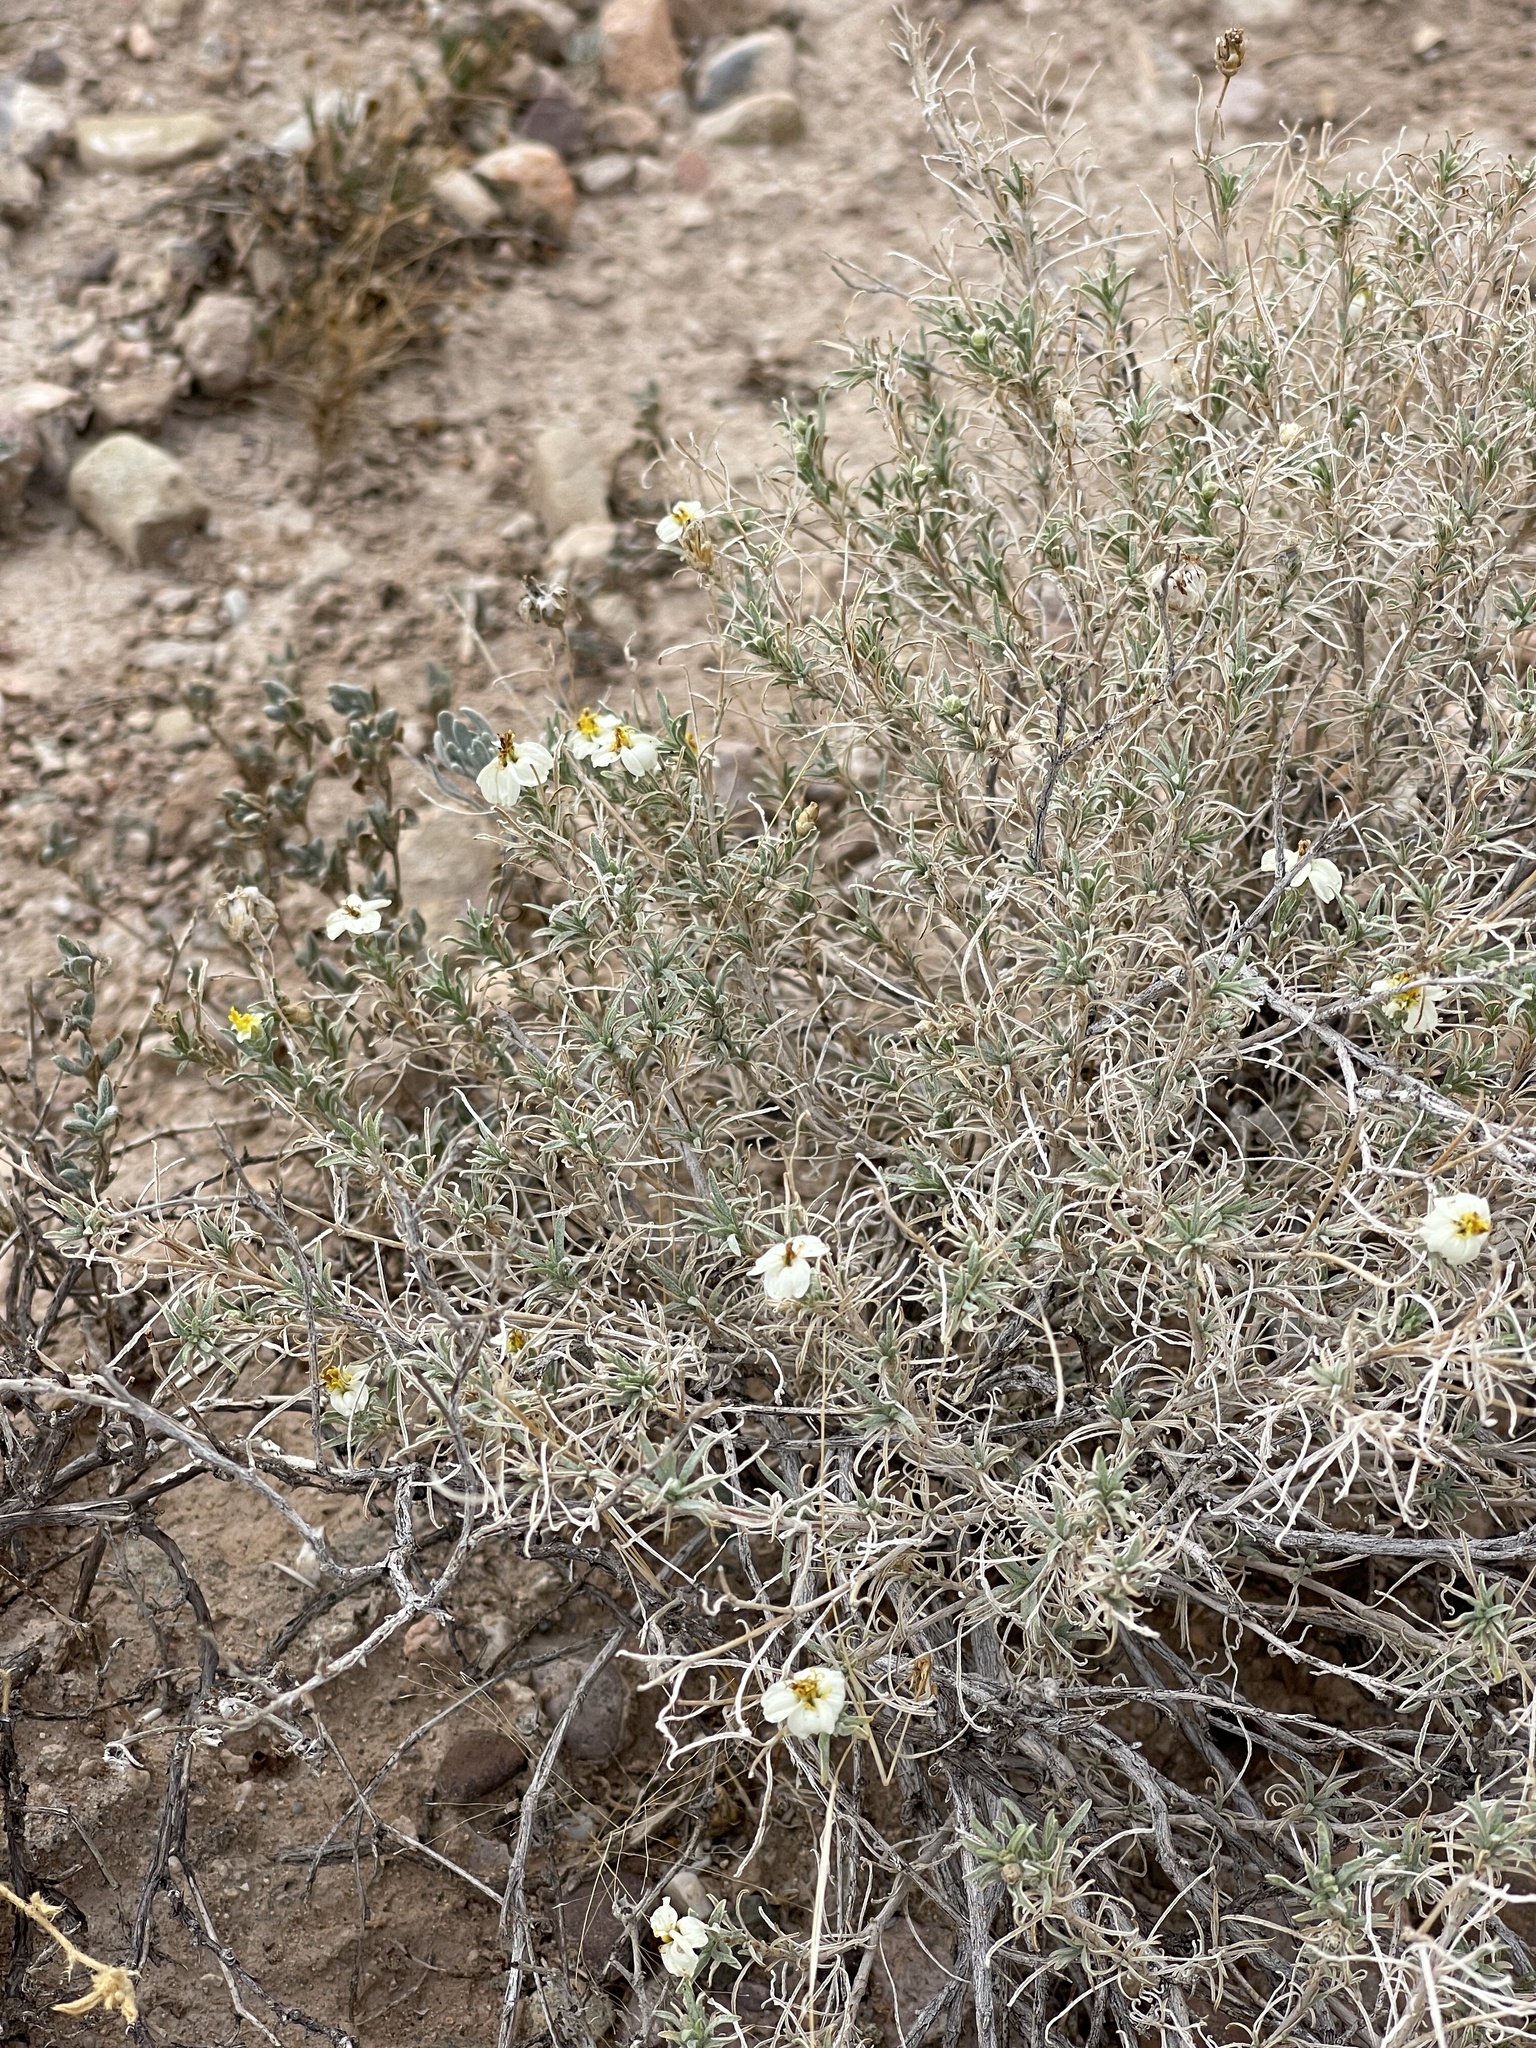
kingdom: Plantae
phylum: Tracheophyta
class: Magnoliopsida
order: Asterales
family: Asteraceae
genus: Zinnia
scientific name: Zinnia acerosa
